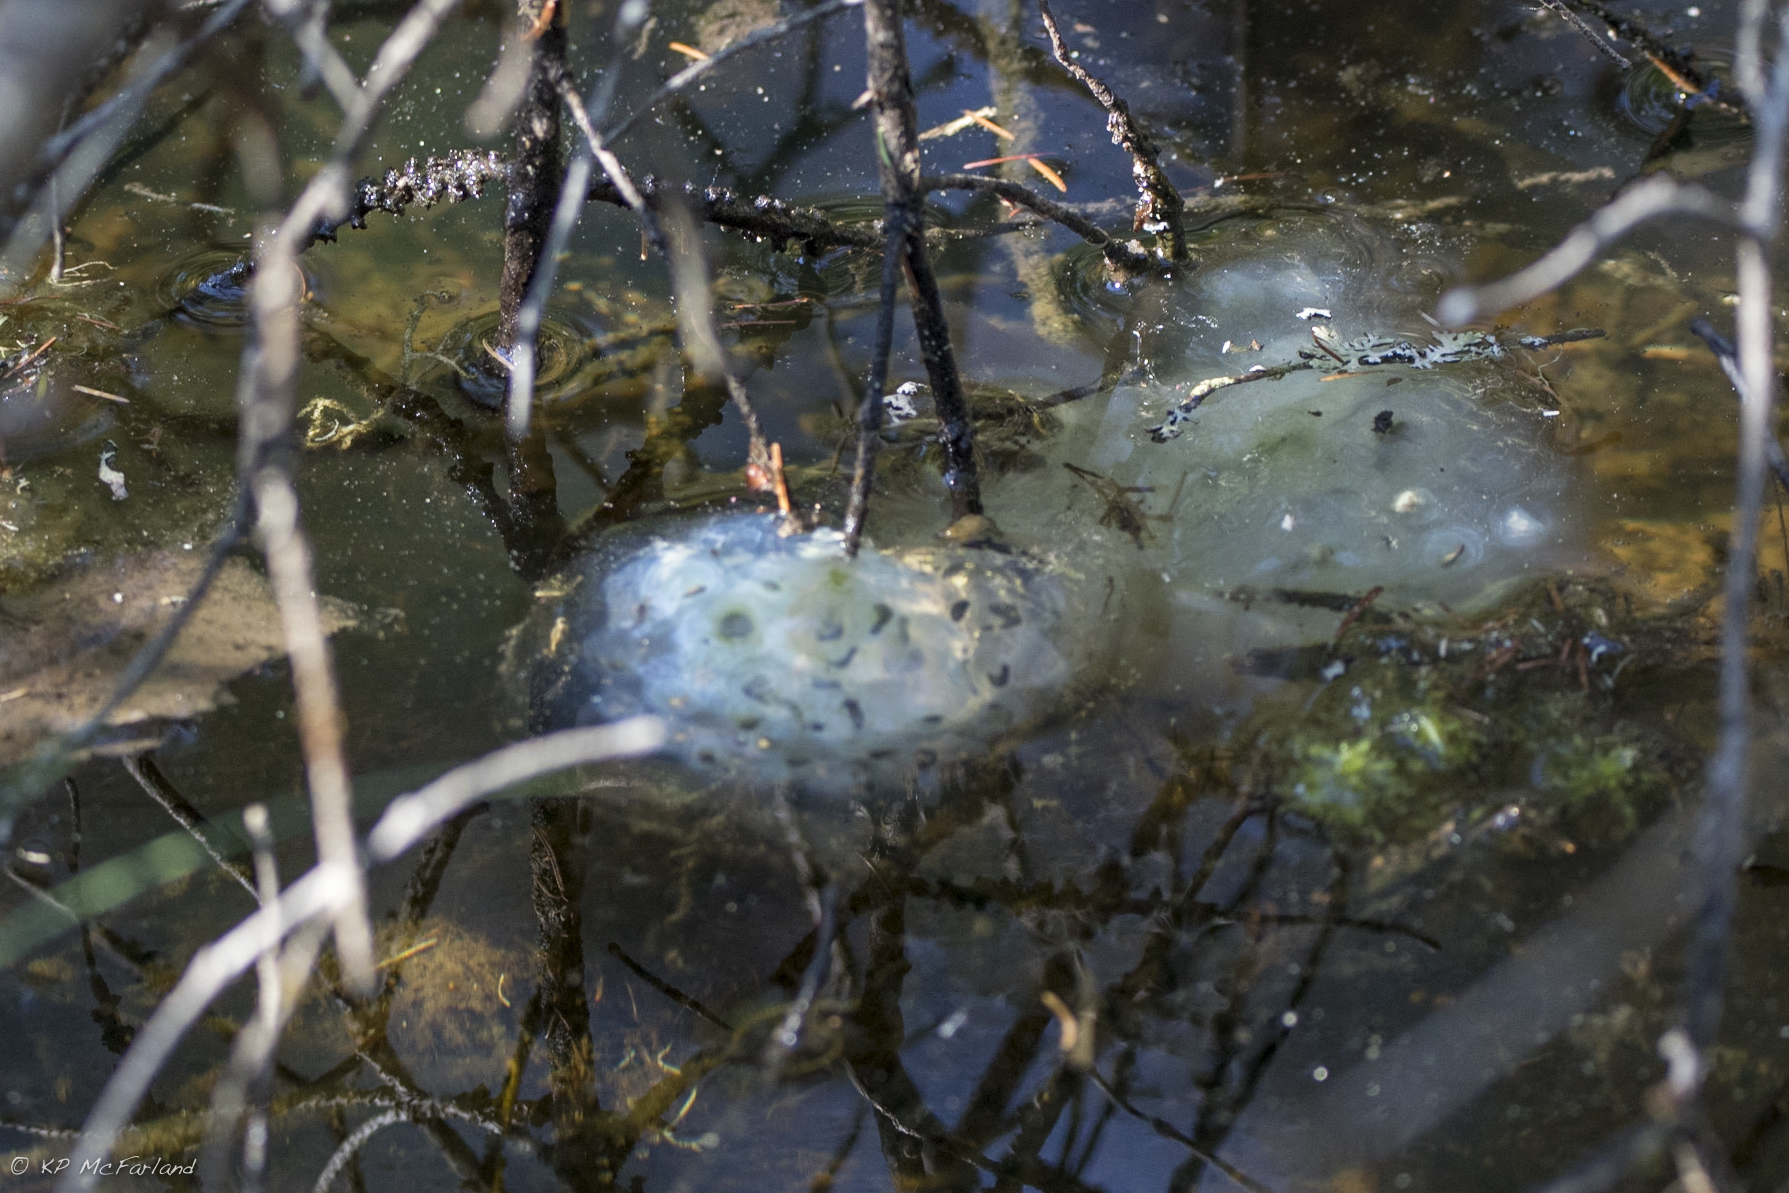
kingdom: Animalia
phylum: Chordata
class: Amphibia
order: Caudata
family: Ambystomatidae
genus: Ambystoma
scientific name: Ambystoma maculatum
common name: Spotted salamander
